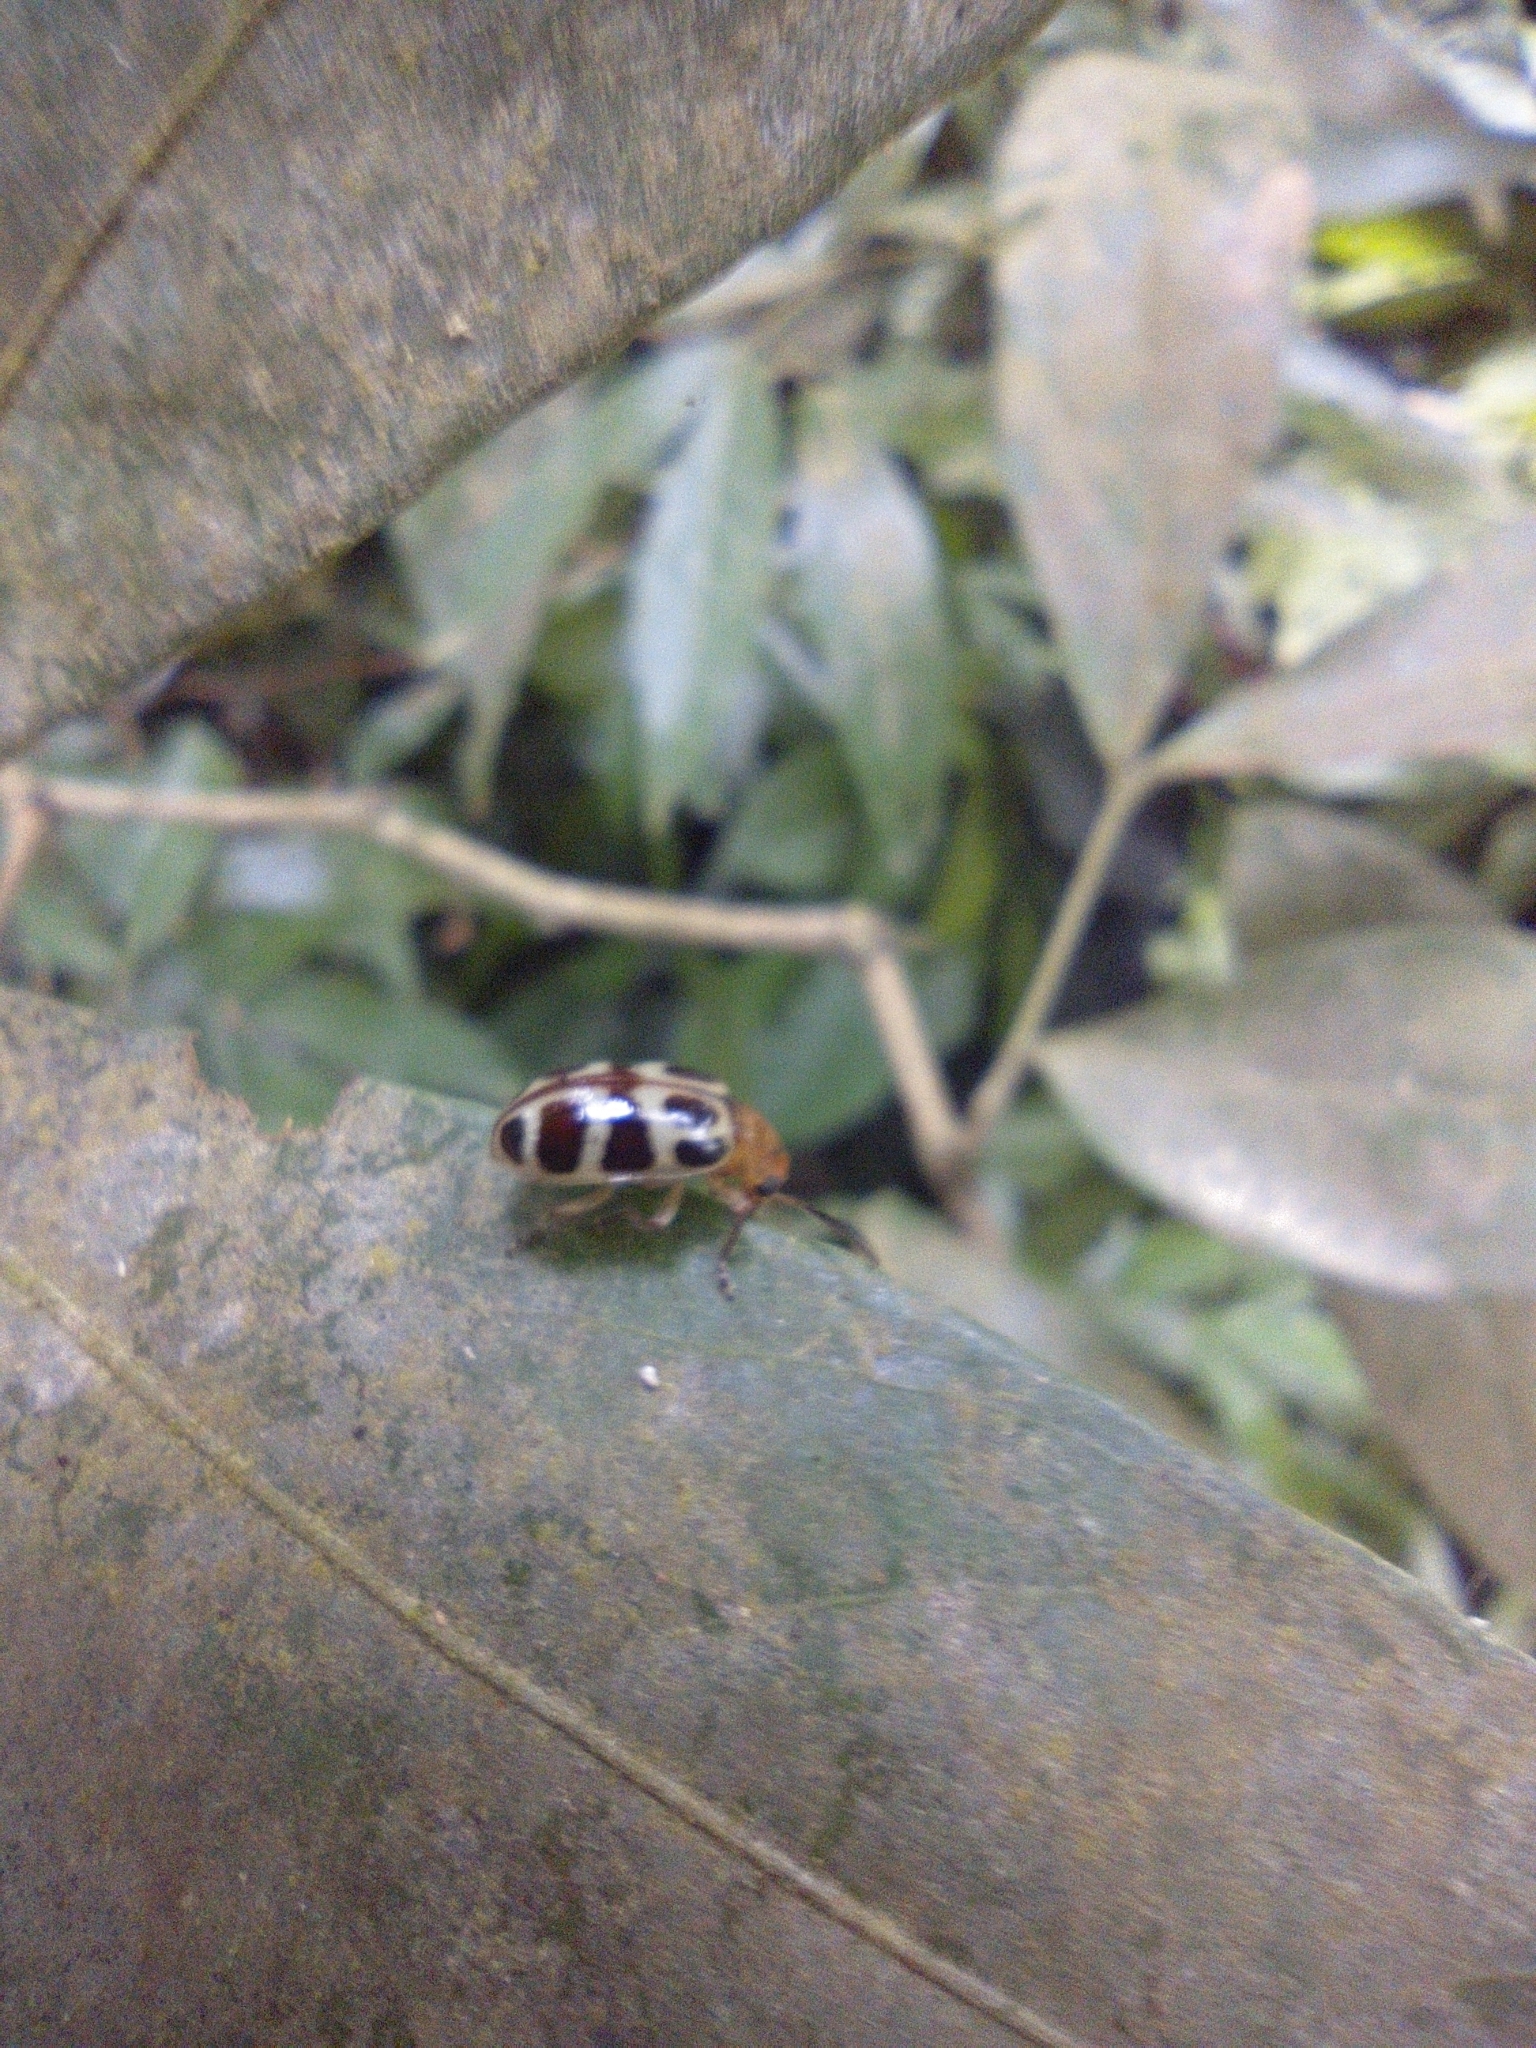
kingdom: Animalia
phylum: Arthropoda
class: Insecta
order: Coleoptera
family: Chrysomelidae
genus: Exora
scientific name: Exora olivacea
